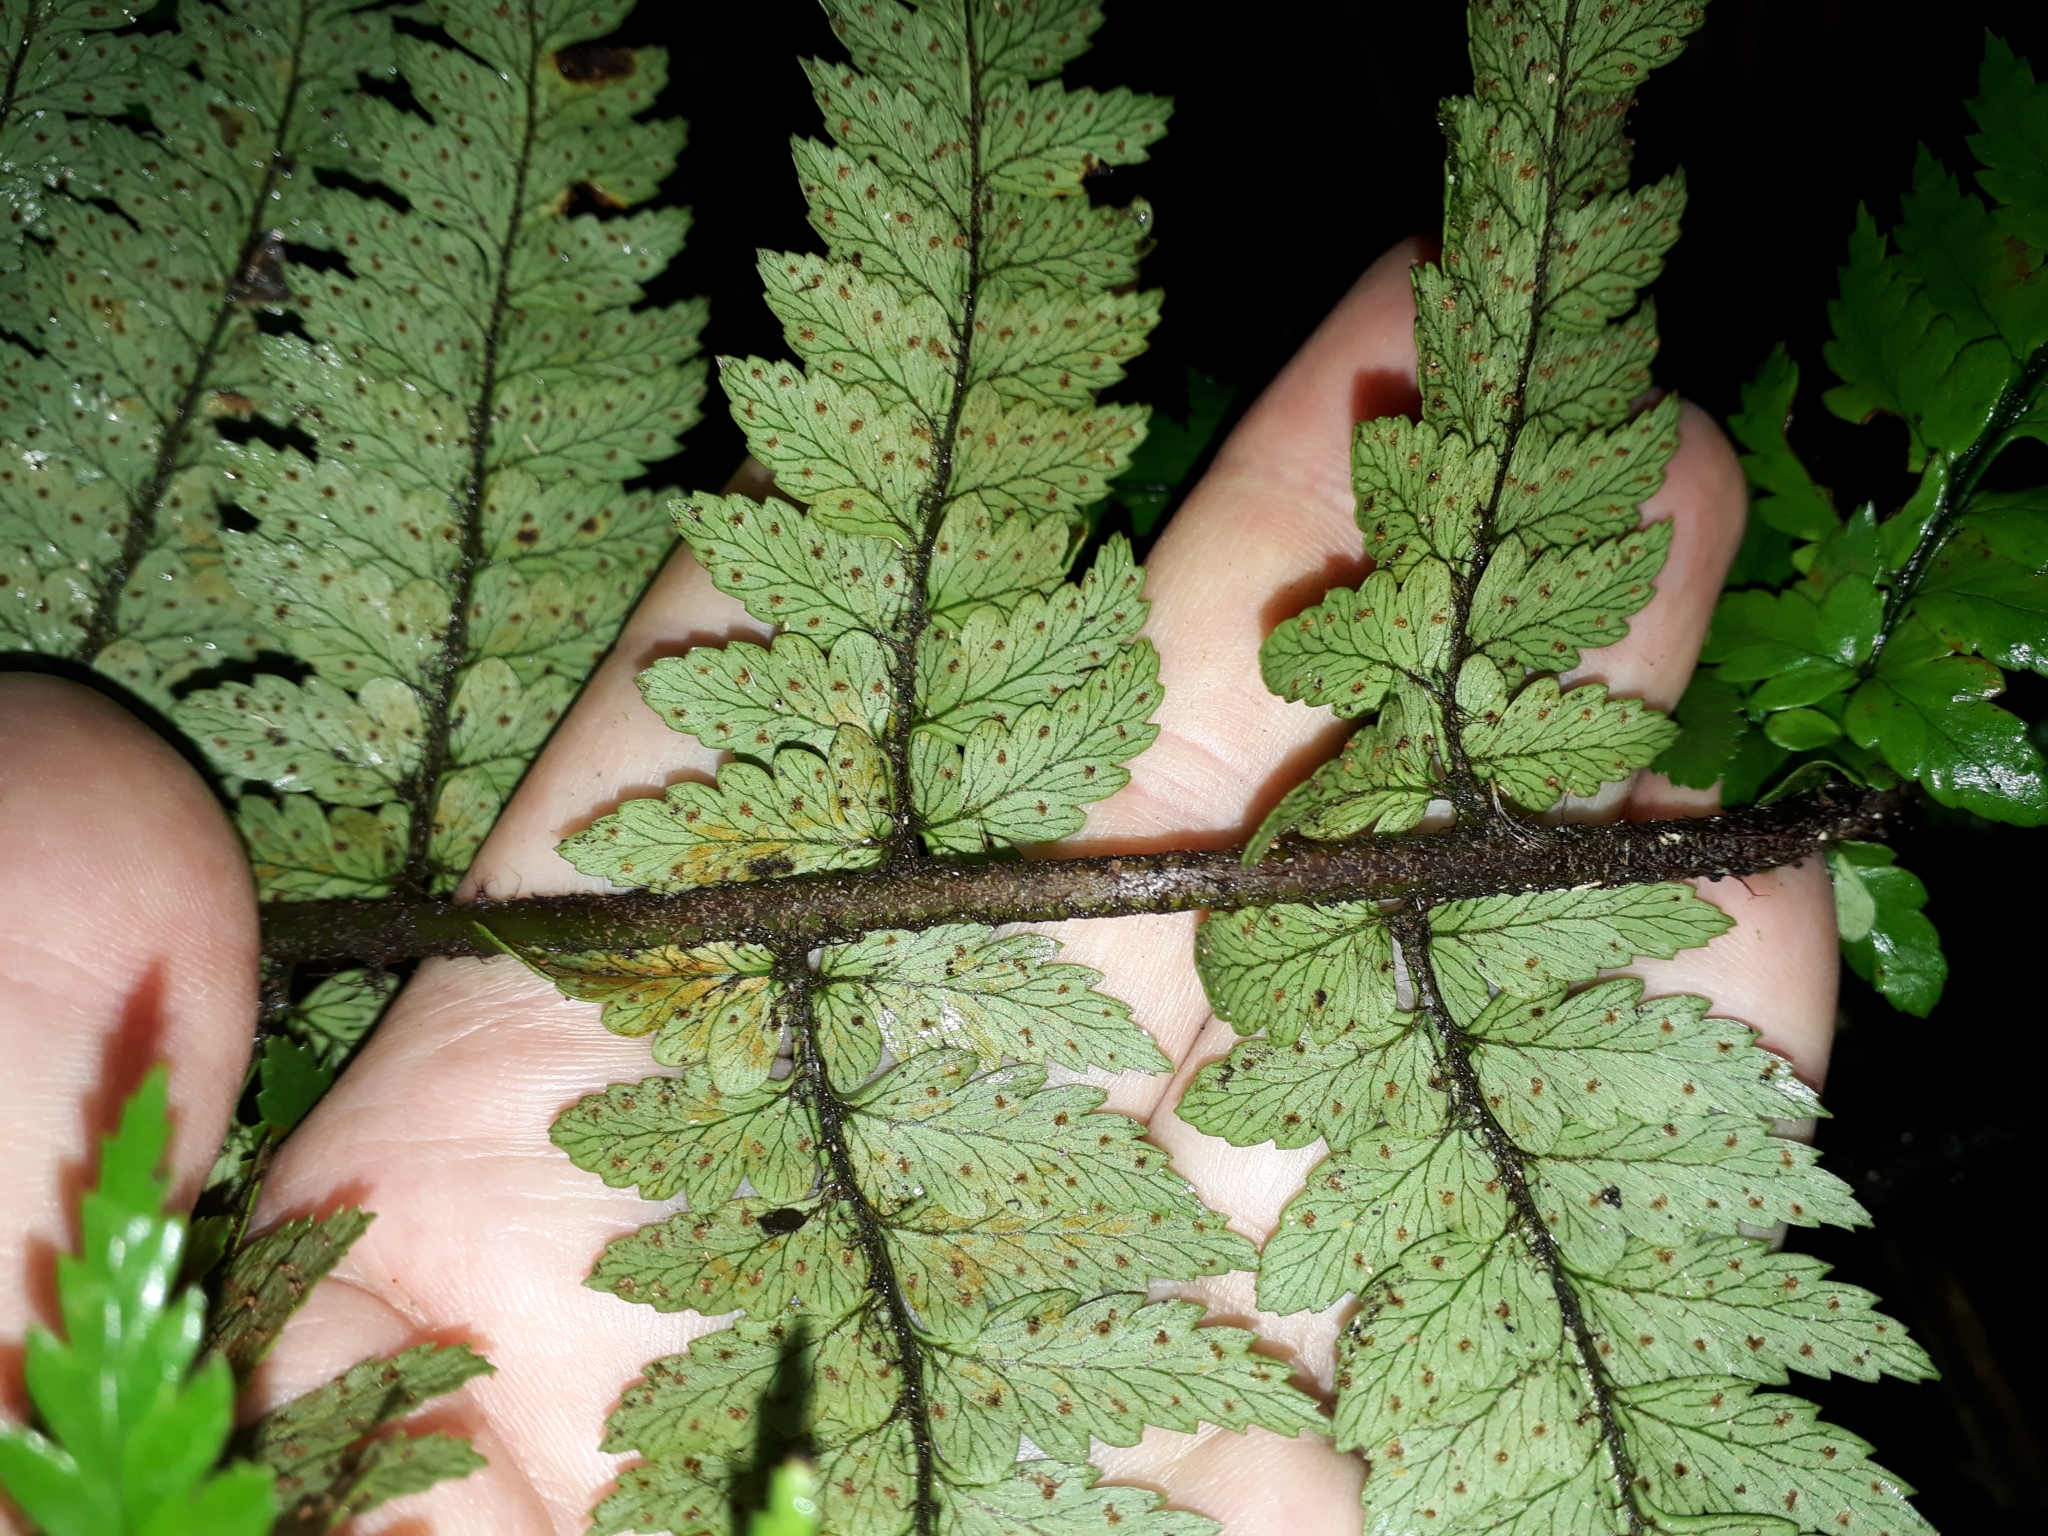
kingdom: Plantae
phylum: Tracheophyta
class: Polypodiopsida
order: Polypodiales
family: Dryopteridaceae
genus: Polystichum
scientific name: Polystichum wawranum
